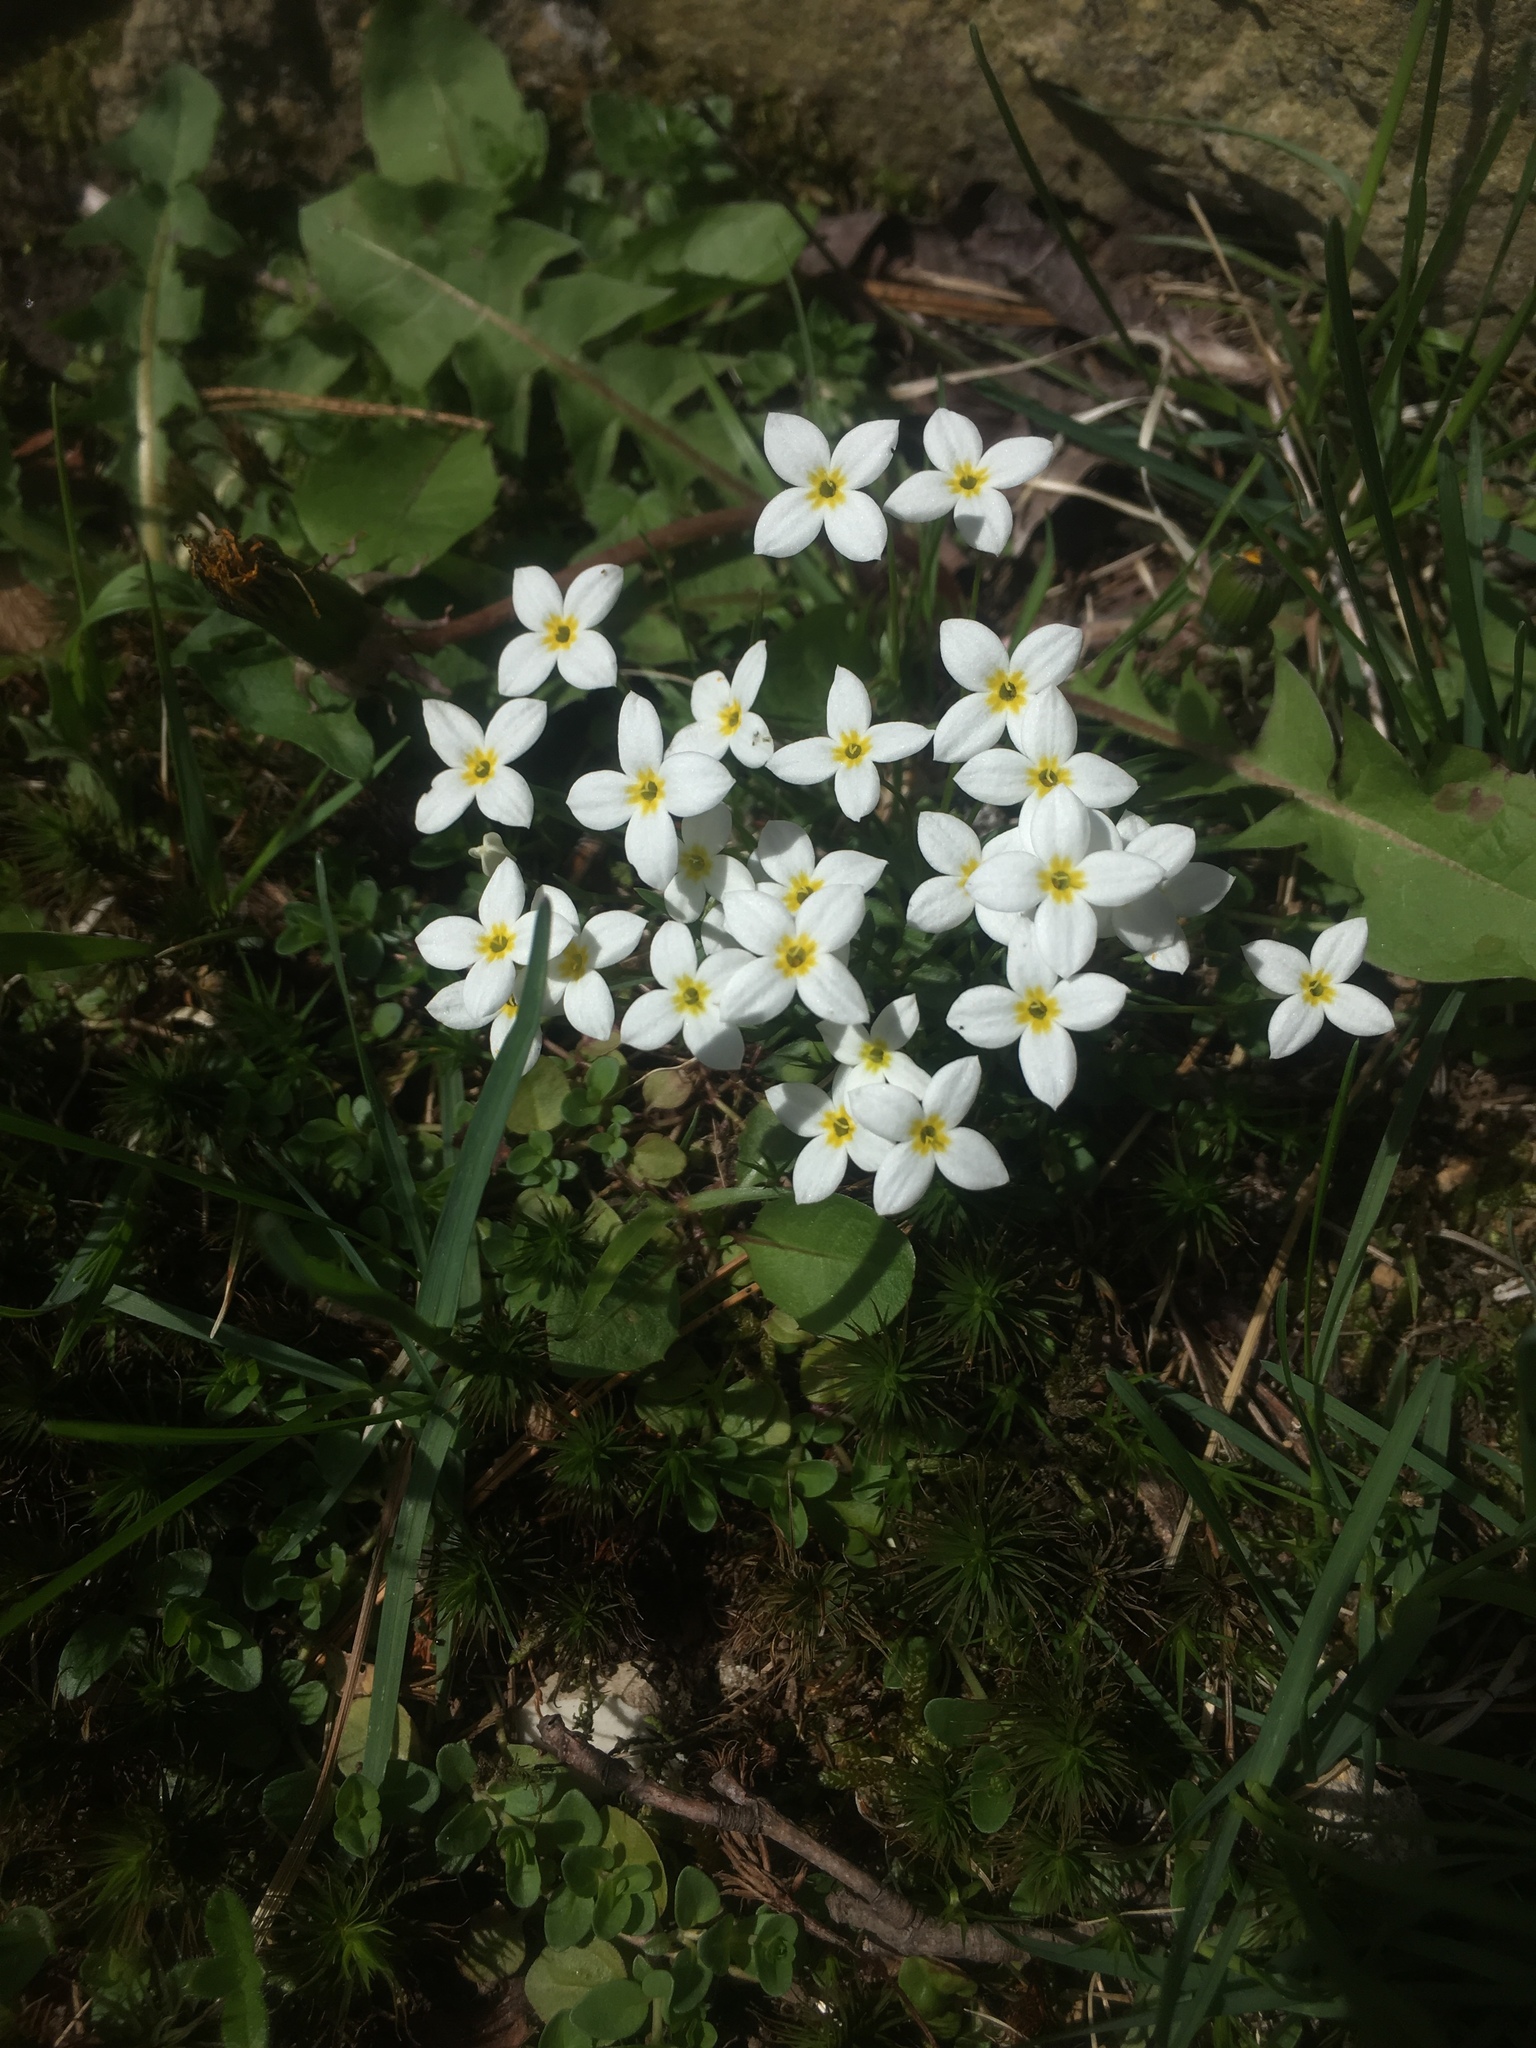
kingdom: Plantae
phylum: Tracheophyta
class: Magnoliopsida
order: Gentianales
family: Rubiaceae
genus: Houstonia
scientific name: Houstonia caerulea
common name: Bluets
